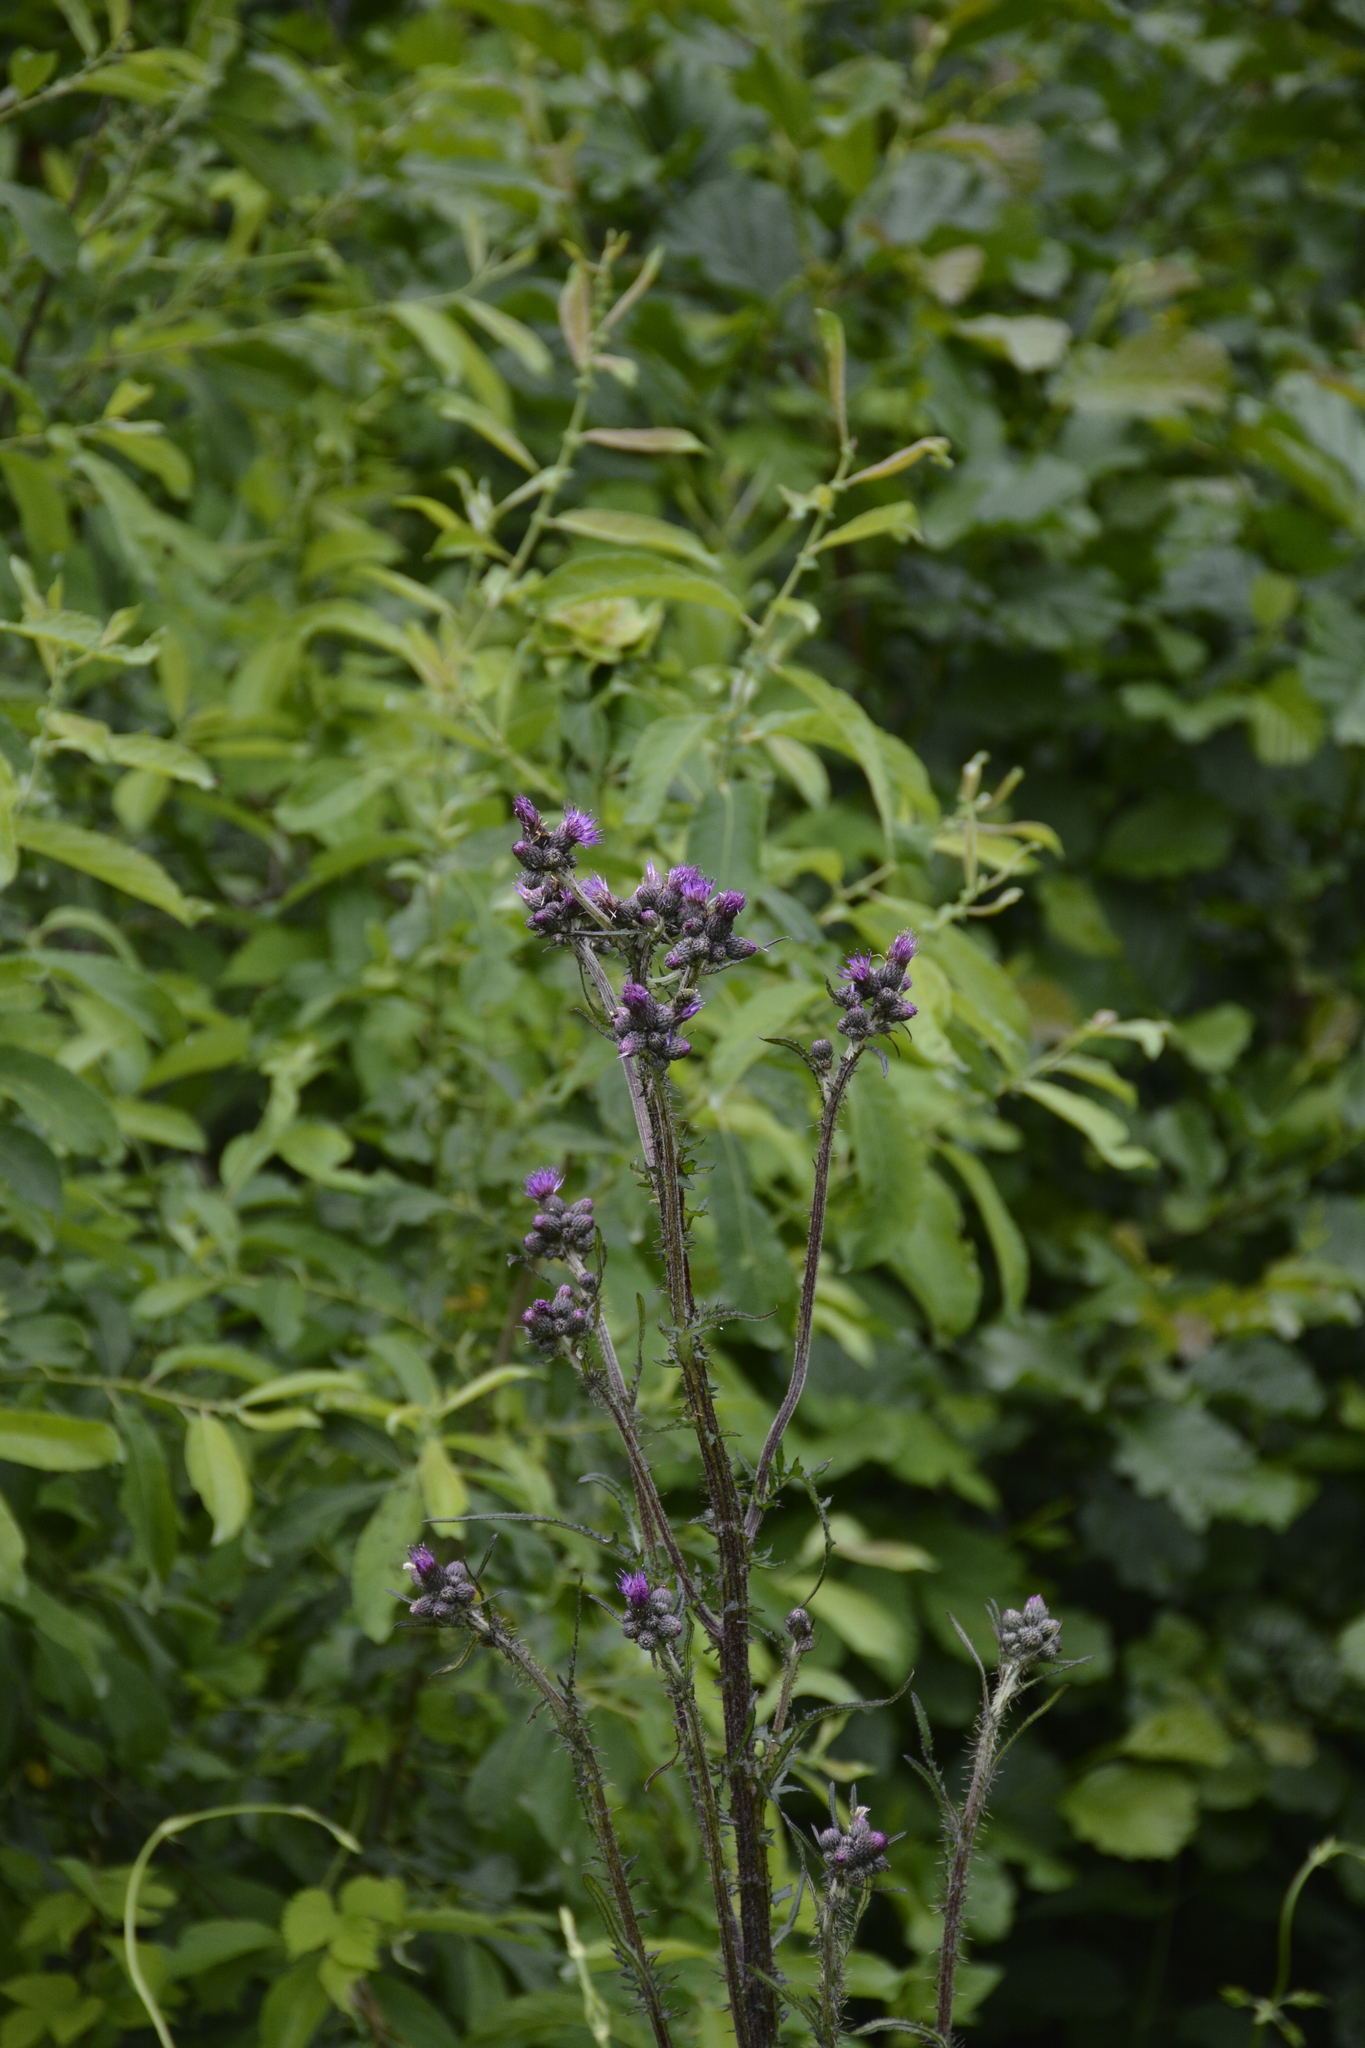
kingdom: Plantae
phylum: Tracheophyta
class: Magnoliopsida
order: Asterales
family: Asteraceae
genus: Cirsium
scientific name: Cirsium palustre
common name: Marsh thistle
